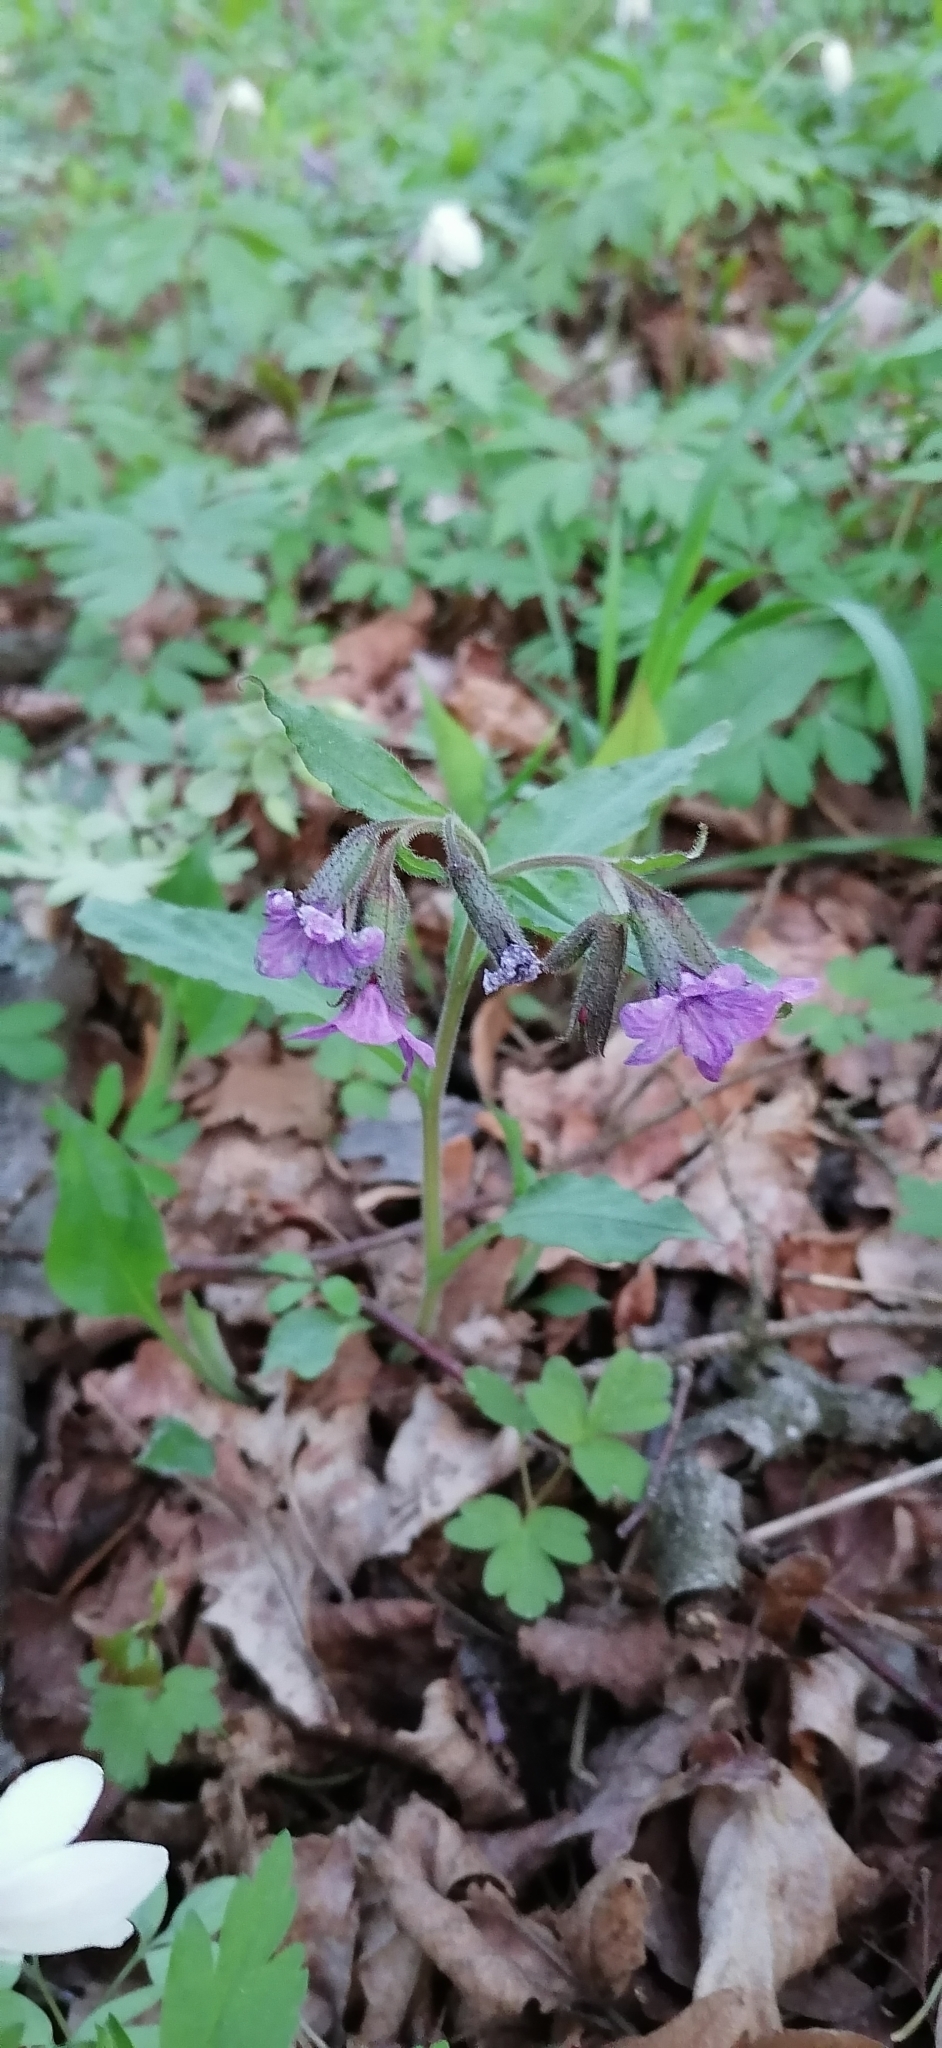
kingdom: Plantae
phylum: Tracheophyta
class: Magnoliopsida
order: Boraginales
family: Boraginaceae
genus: Pulmonaria
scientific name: Pulmonaria obscura
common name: Suffolk lungwort
